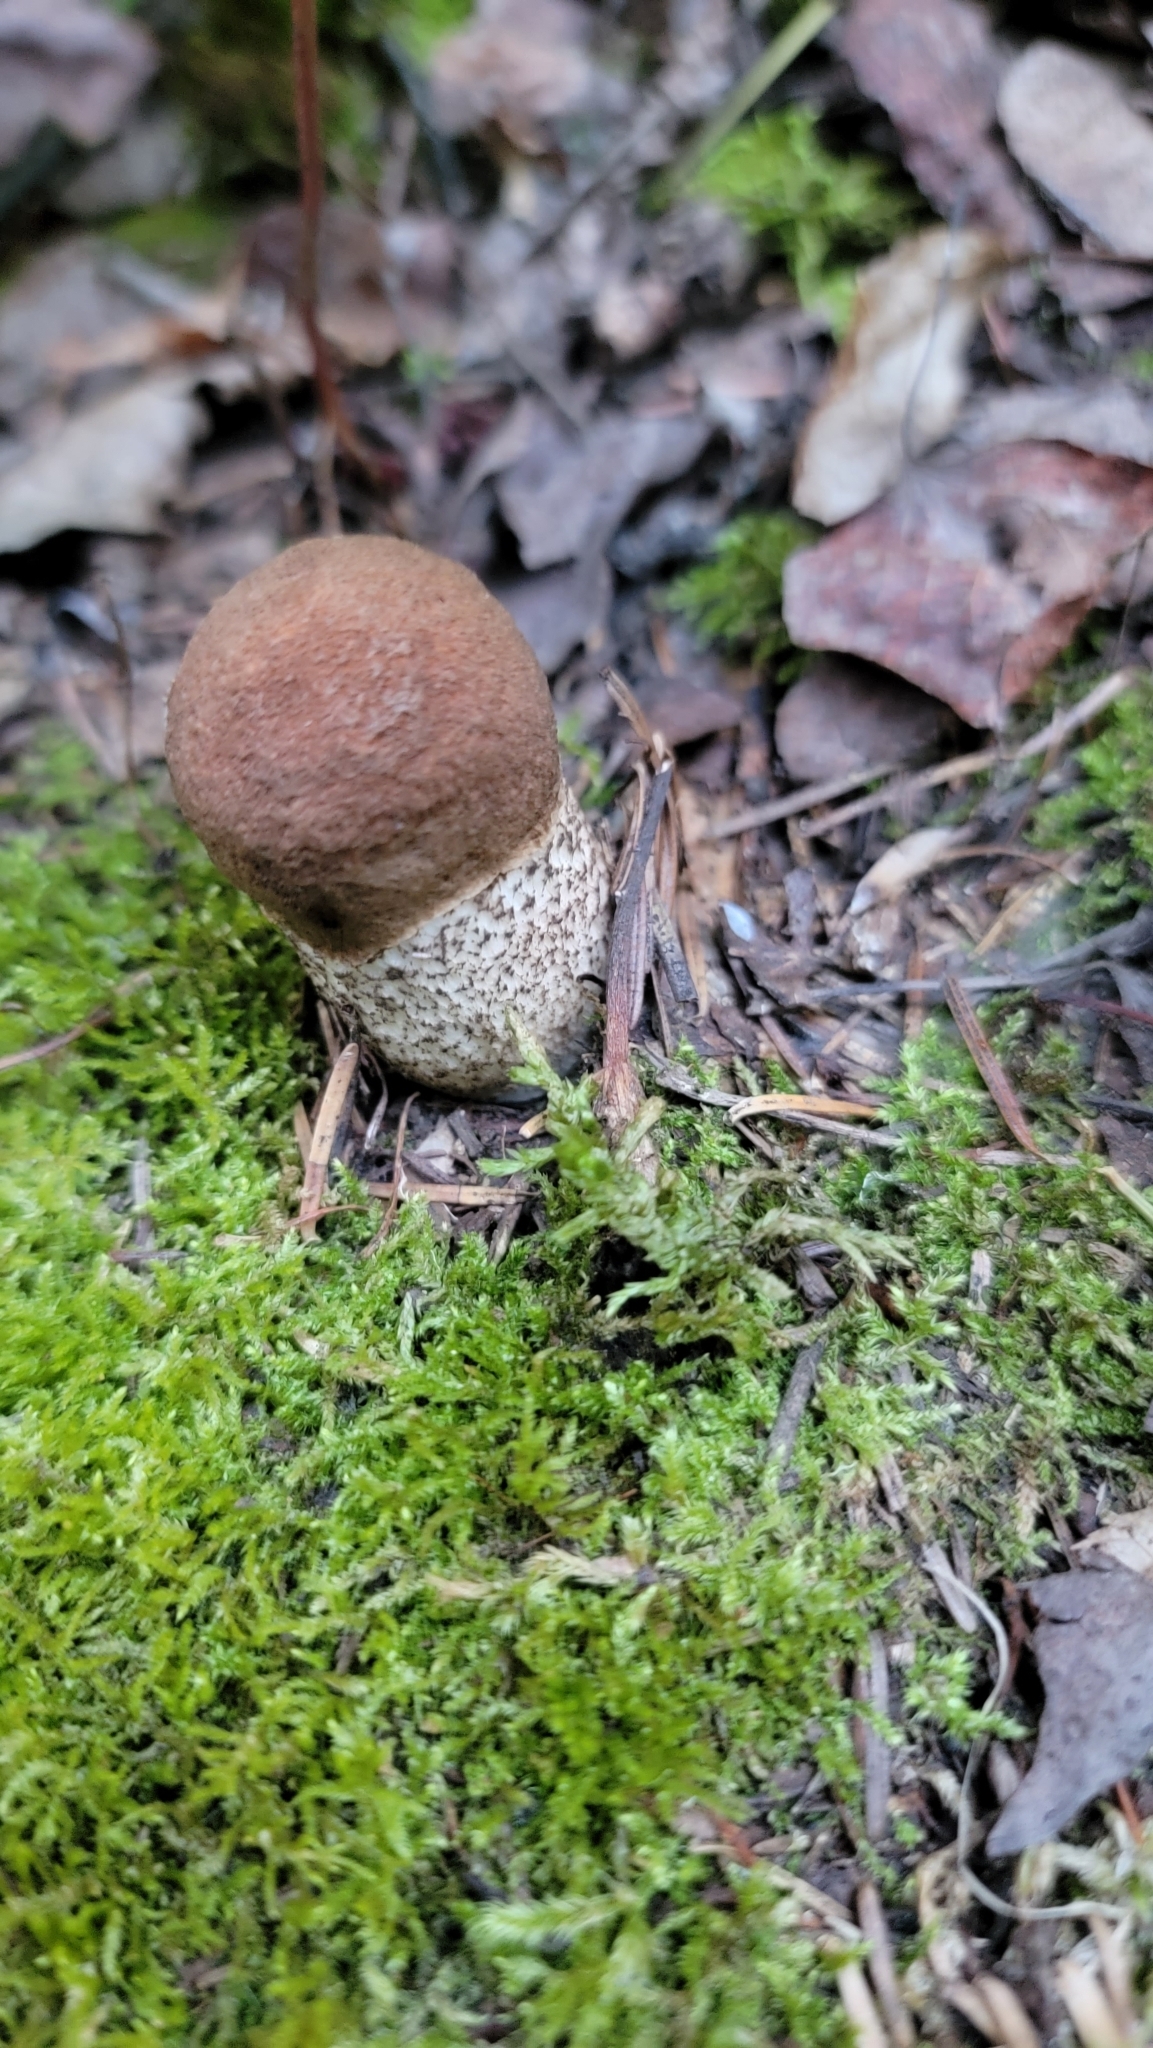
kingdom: Fungi
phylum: Basidiomycota
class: Agaricomycetes
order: Boletales
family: Boletaceae
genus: Leccinum
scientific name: Leccinum insigne
